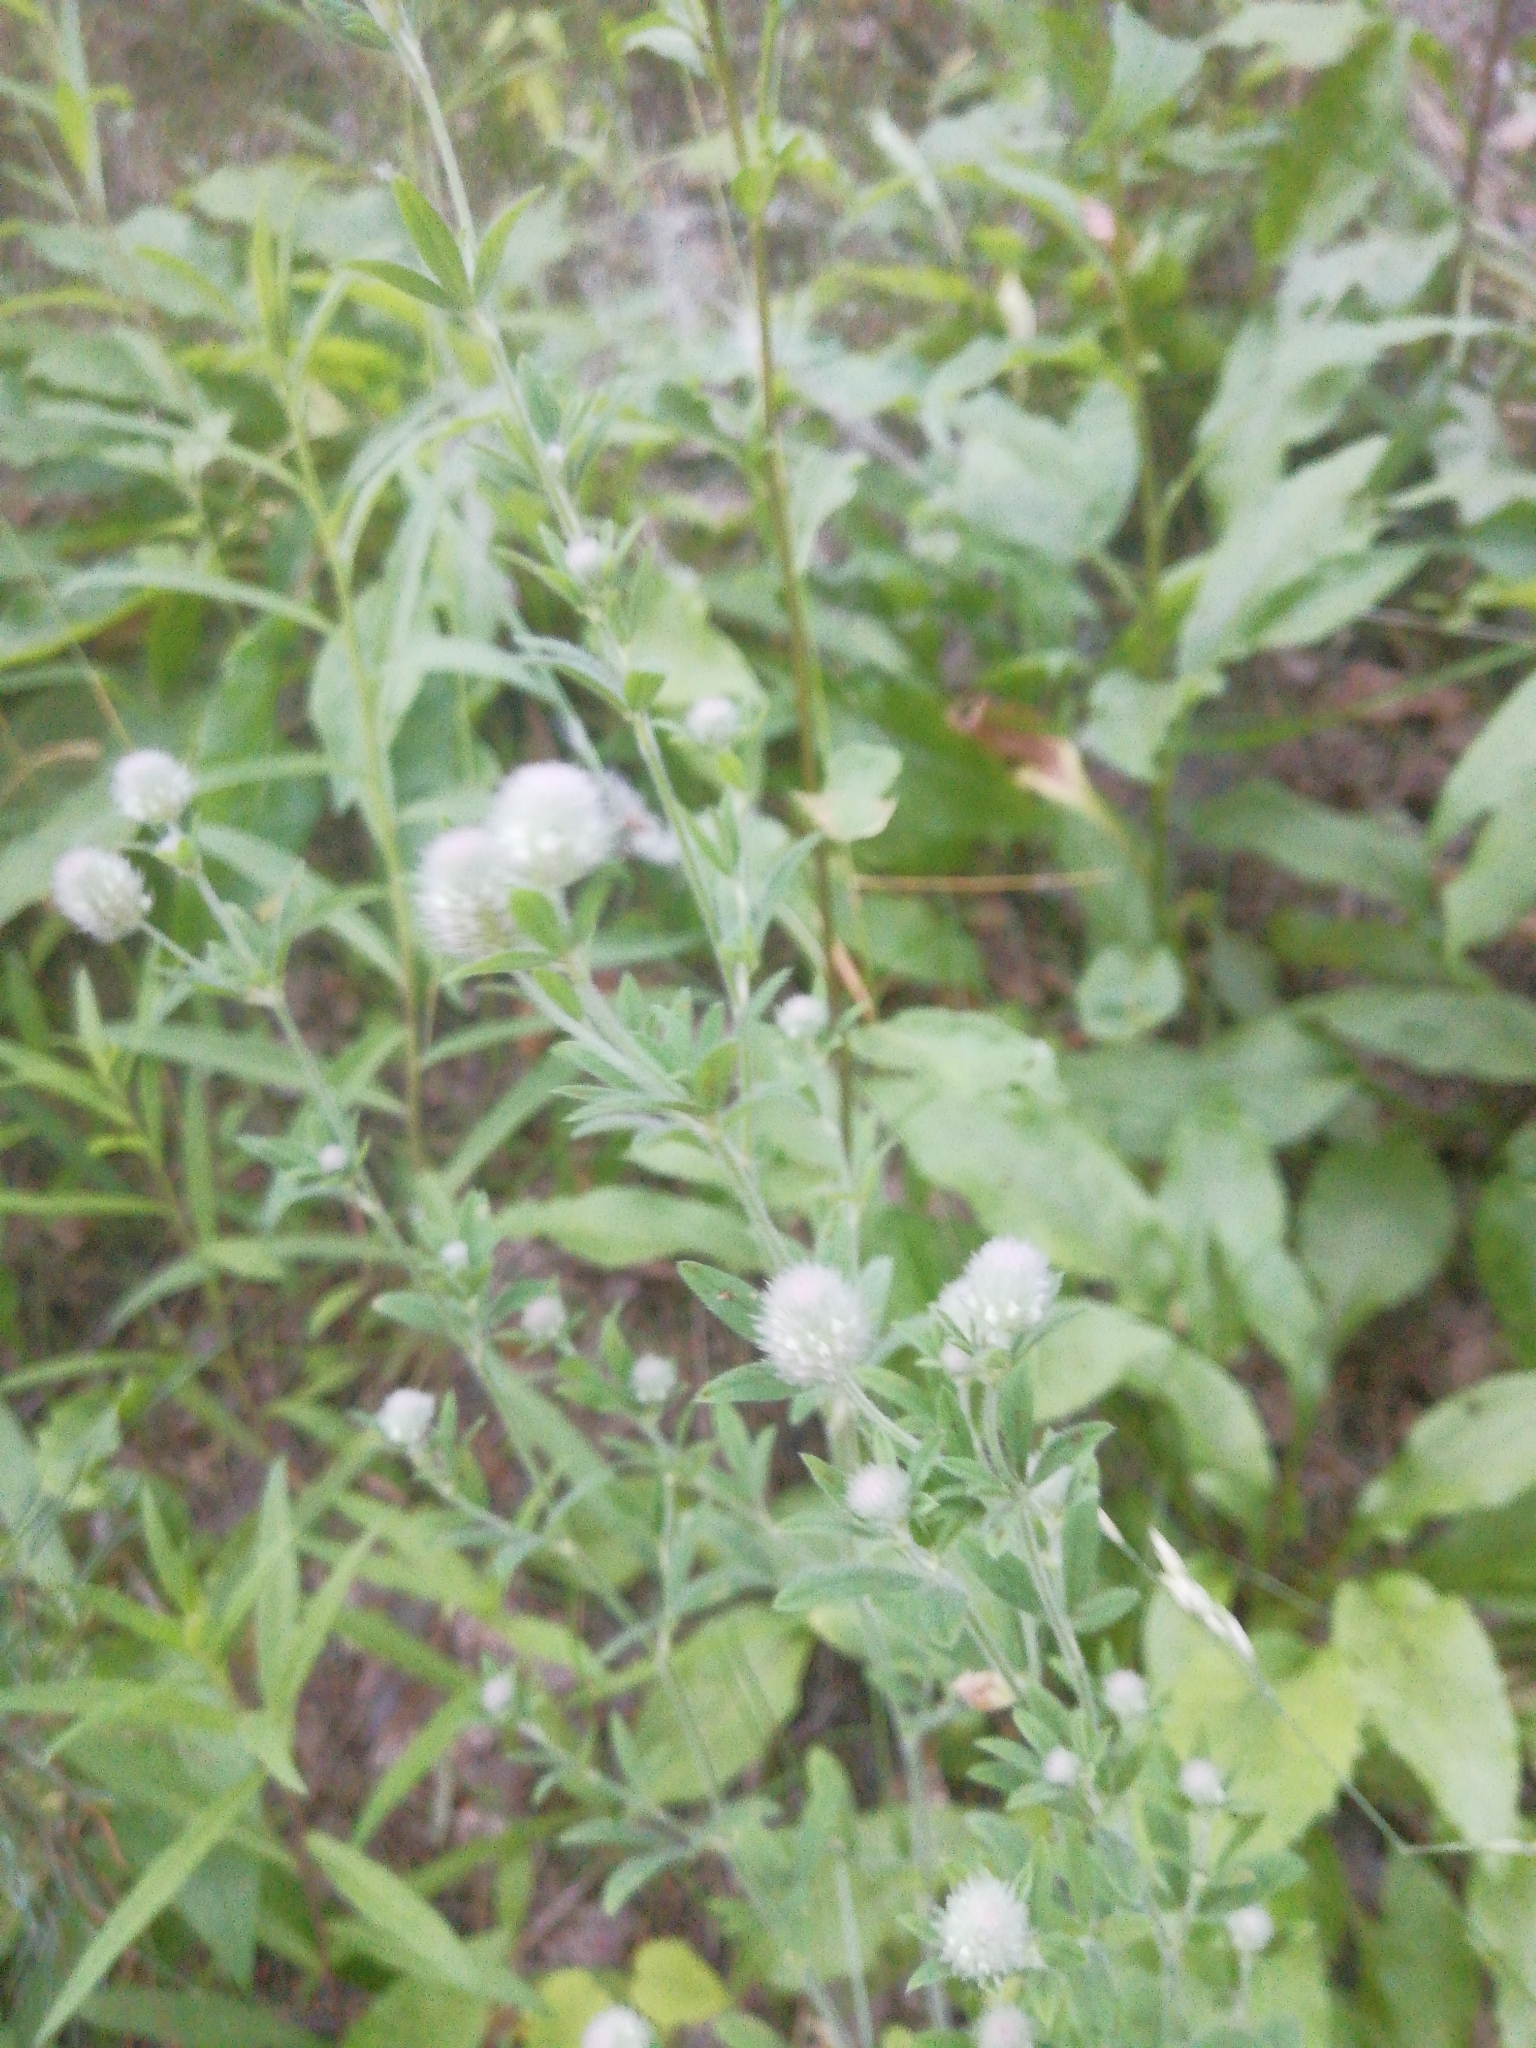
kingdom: Plantae
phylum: Tracheophyta
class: Magnoliopsida
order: Fabales
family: Fabaceae
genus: Trifolium
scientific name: Trifolium arvense
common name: Hare's-foot clover
